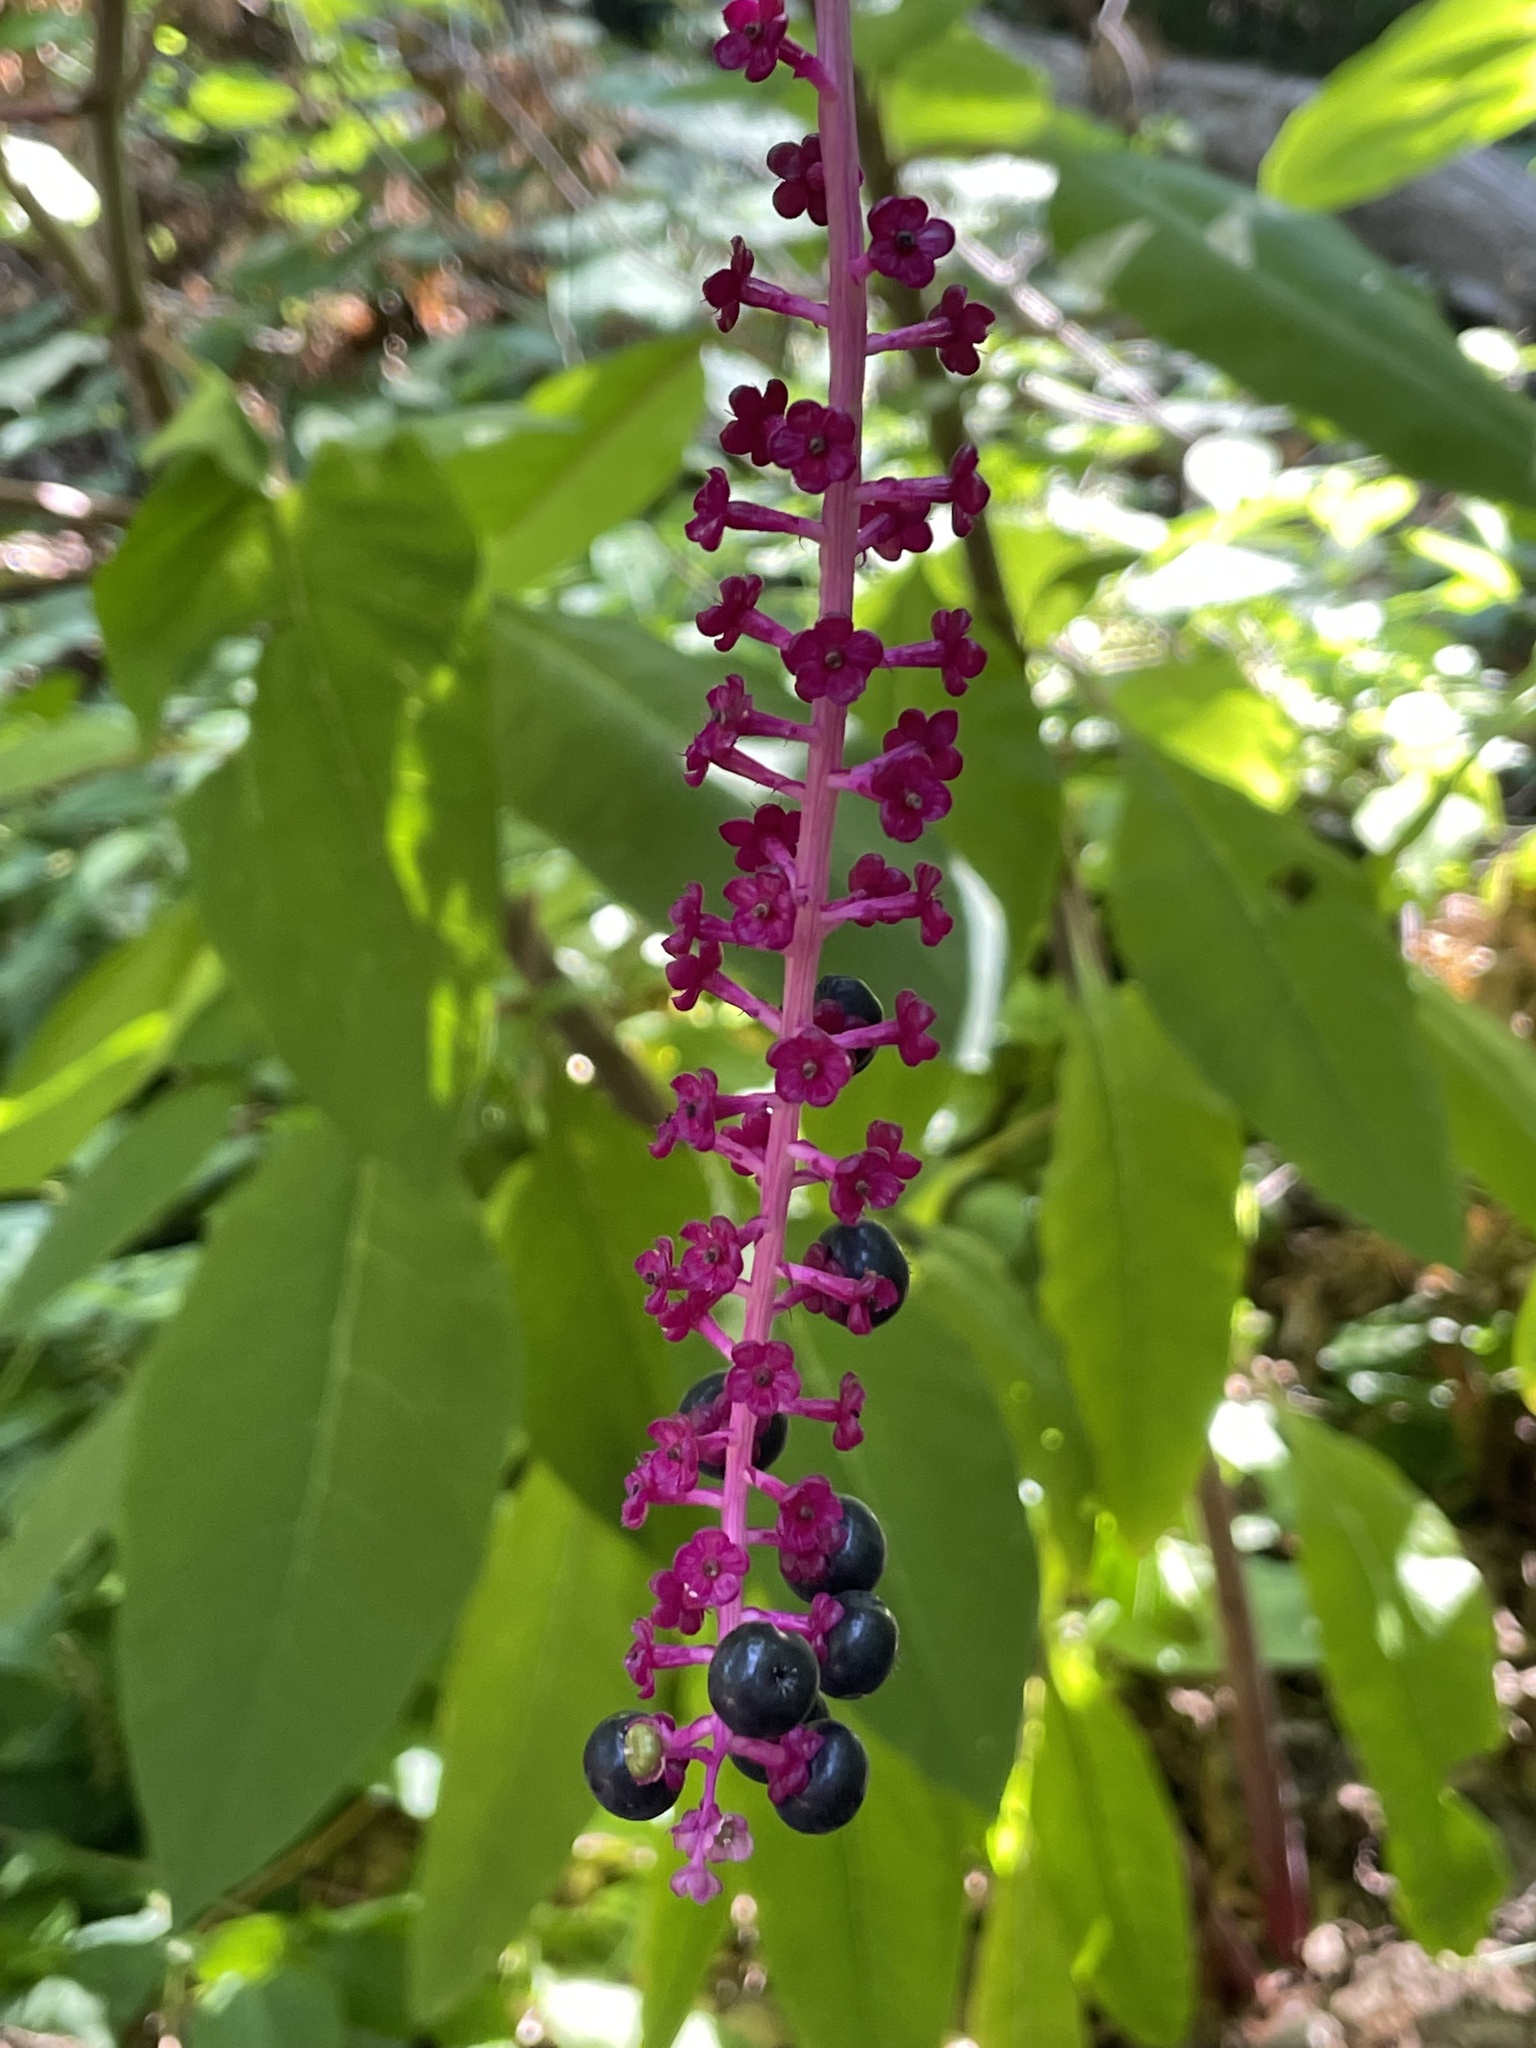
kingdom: Plantae
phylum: Tracheophyta
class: Magnoliopsida
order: Caryophyllales
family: Phytolaccaceae
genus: Phytolacca
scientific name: Phytolacca americana
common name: American pokeweed
